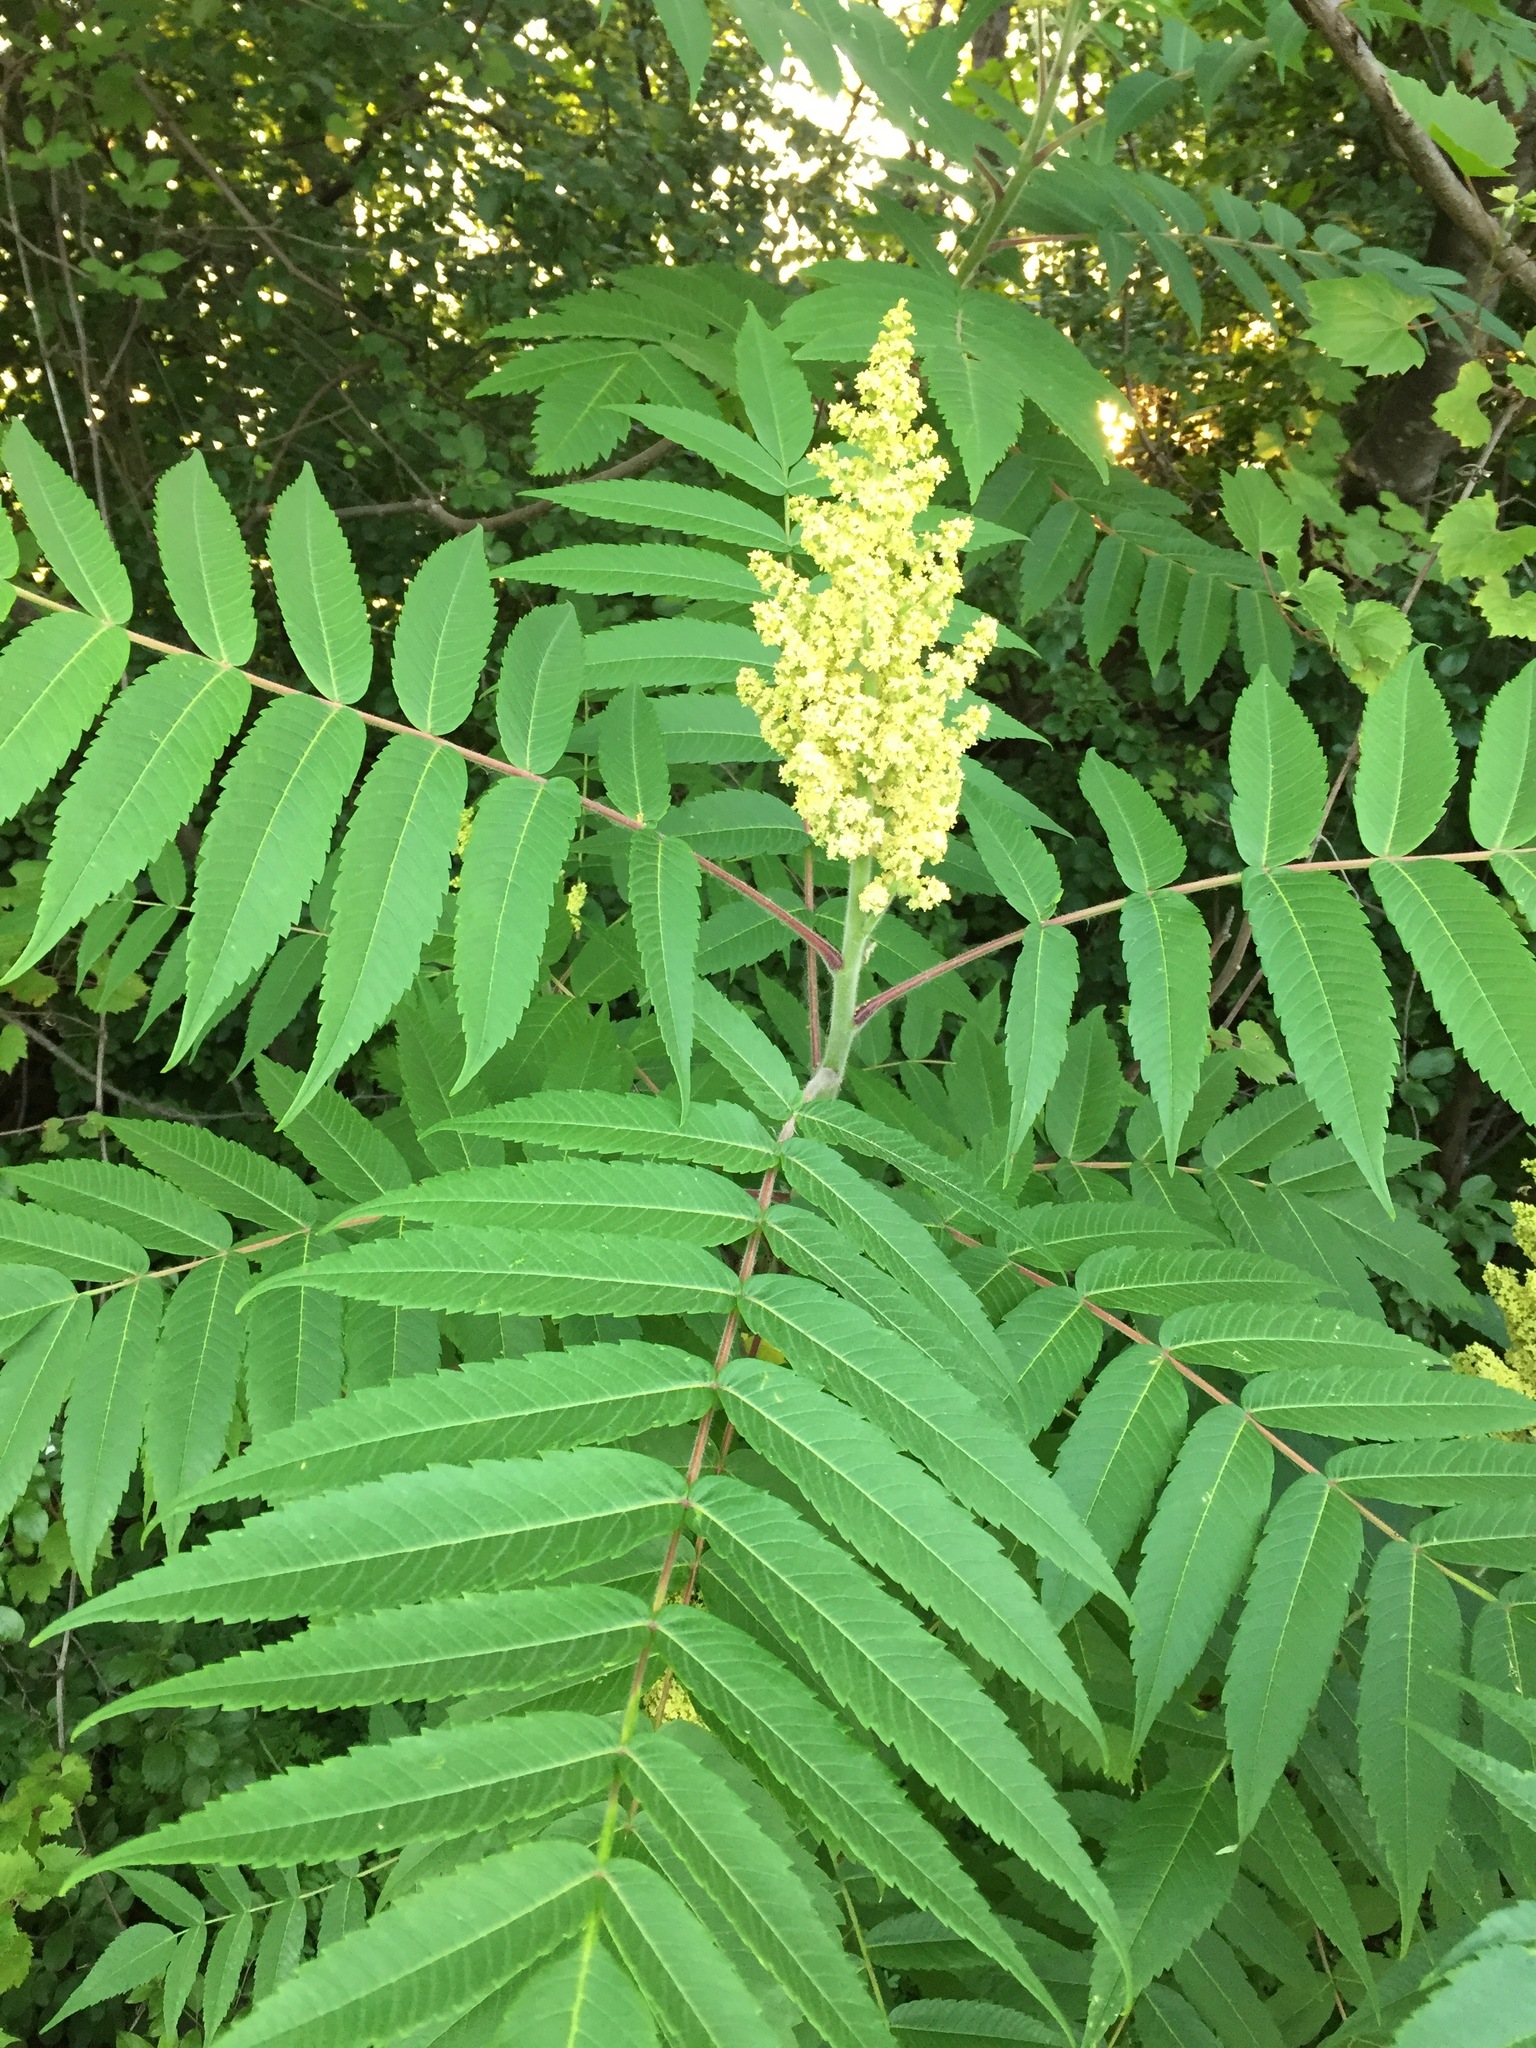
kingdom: Plantae
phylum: Tracheophyta
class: Magnoliopsida
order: Sapindales
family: Anacardiaceae
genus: Rhus
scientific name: Rhus typhina
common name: Staghorn sumac
